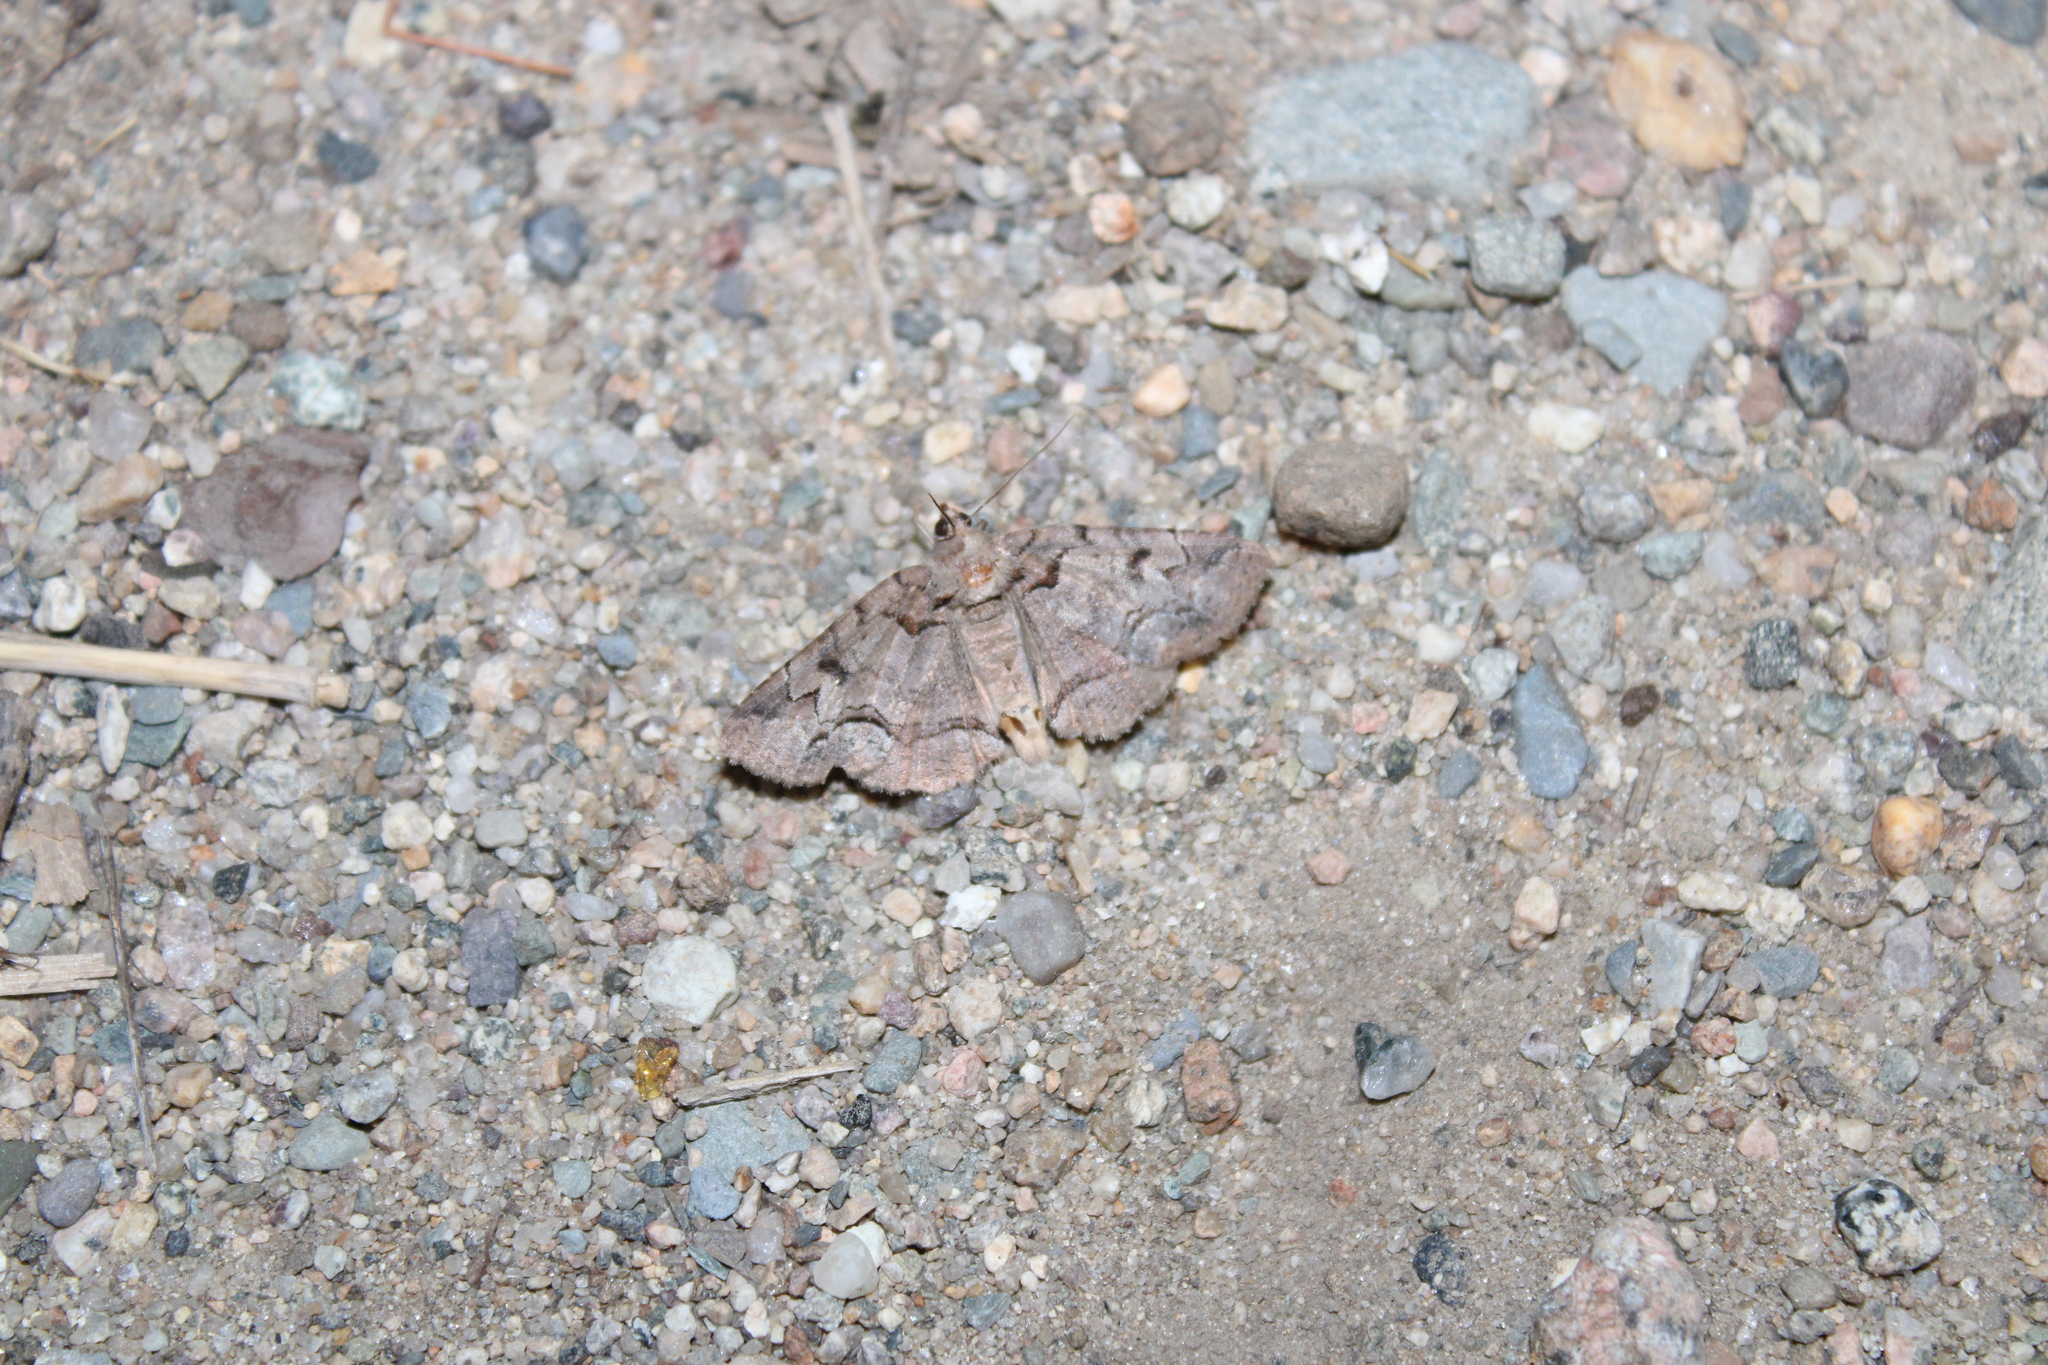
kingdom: Animalia
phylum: Arthropoda
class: Insecta
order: Lepidoptera
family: Erebidae
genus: Zale
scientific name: Zale helata
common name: Brown-spotted zale moth
